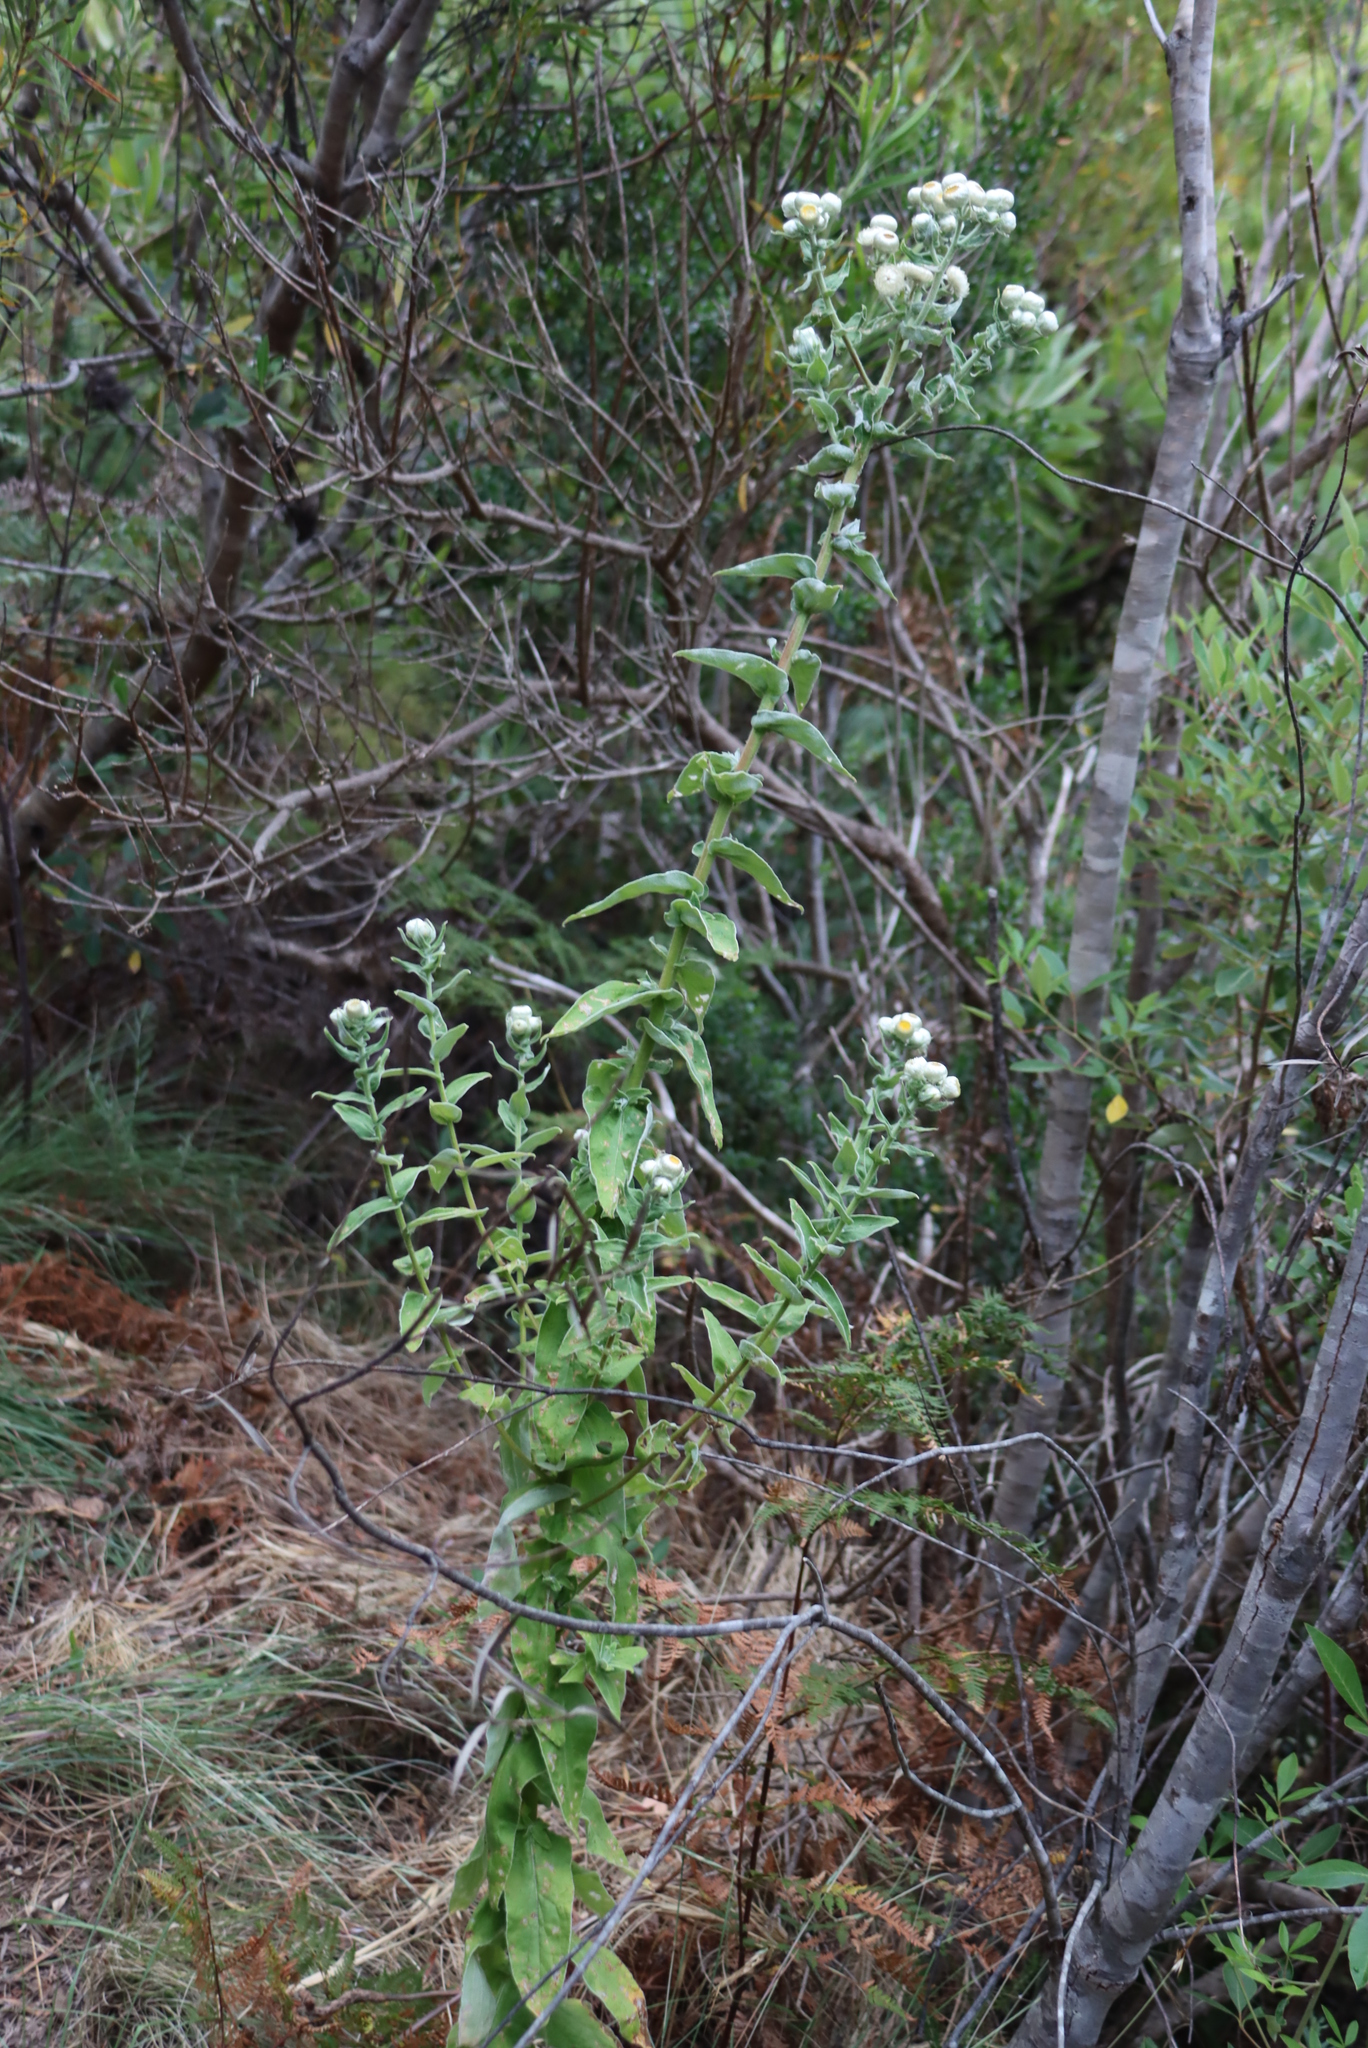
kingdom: Plantae
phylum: Tracheophyta
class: Magnoliopsida
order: Asterales
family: Asteraceae
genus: Helichrysum
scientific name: Helichrysum foetidum
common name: Stinking everlasting
